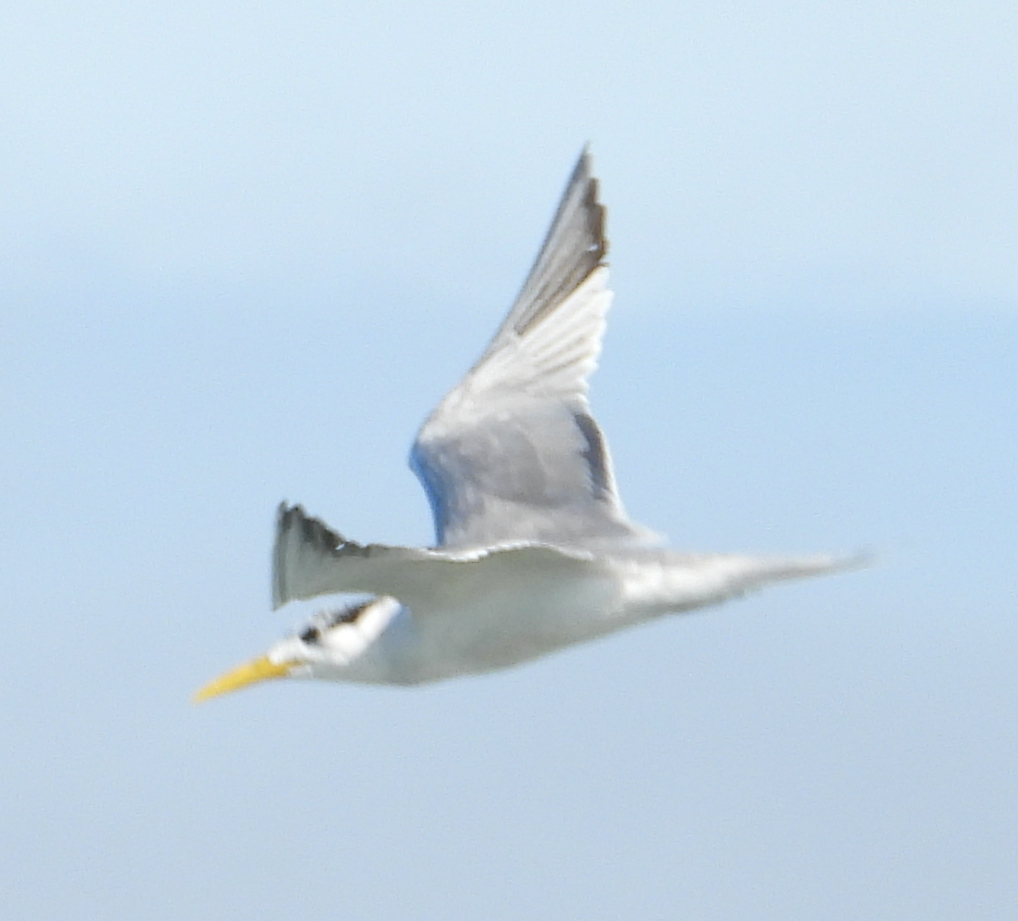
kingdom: Animalia
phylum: Chordata
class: Aves
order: Charadriiformes
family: Laridae
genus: Sternula
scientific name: Sternula albifrons
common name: Little tern
